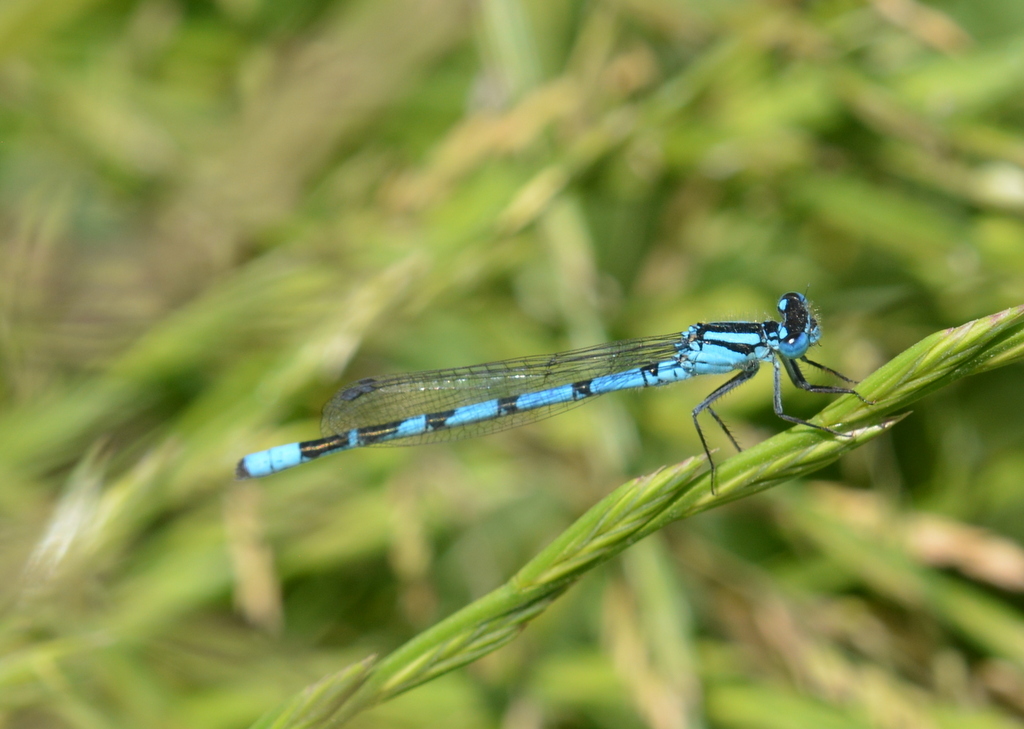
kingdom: Animalia
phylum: Arthropoda
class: Insecta
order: Odonata
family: Coenagrionidae
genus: Enallagma
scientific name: Enallagma cyathigerum
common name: Common blue damselfly
